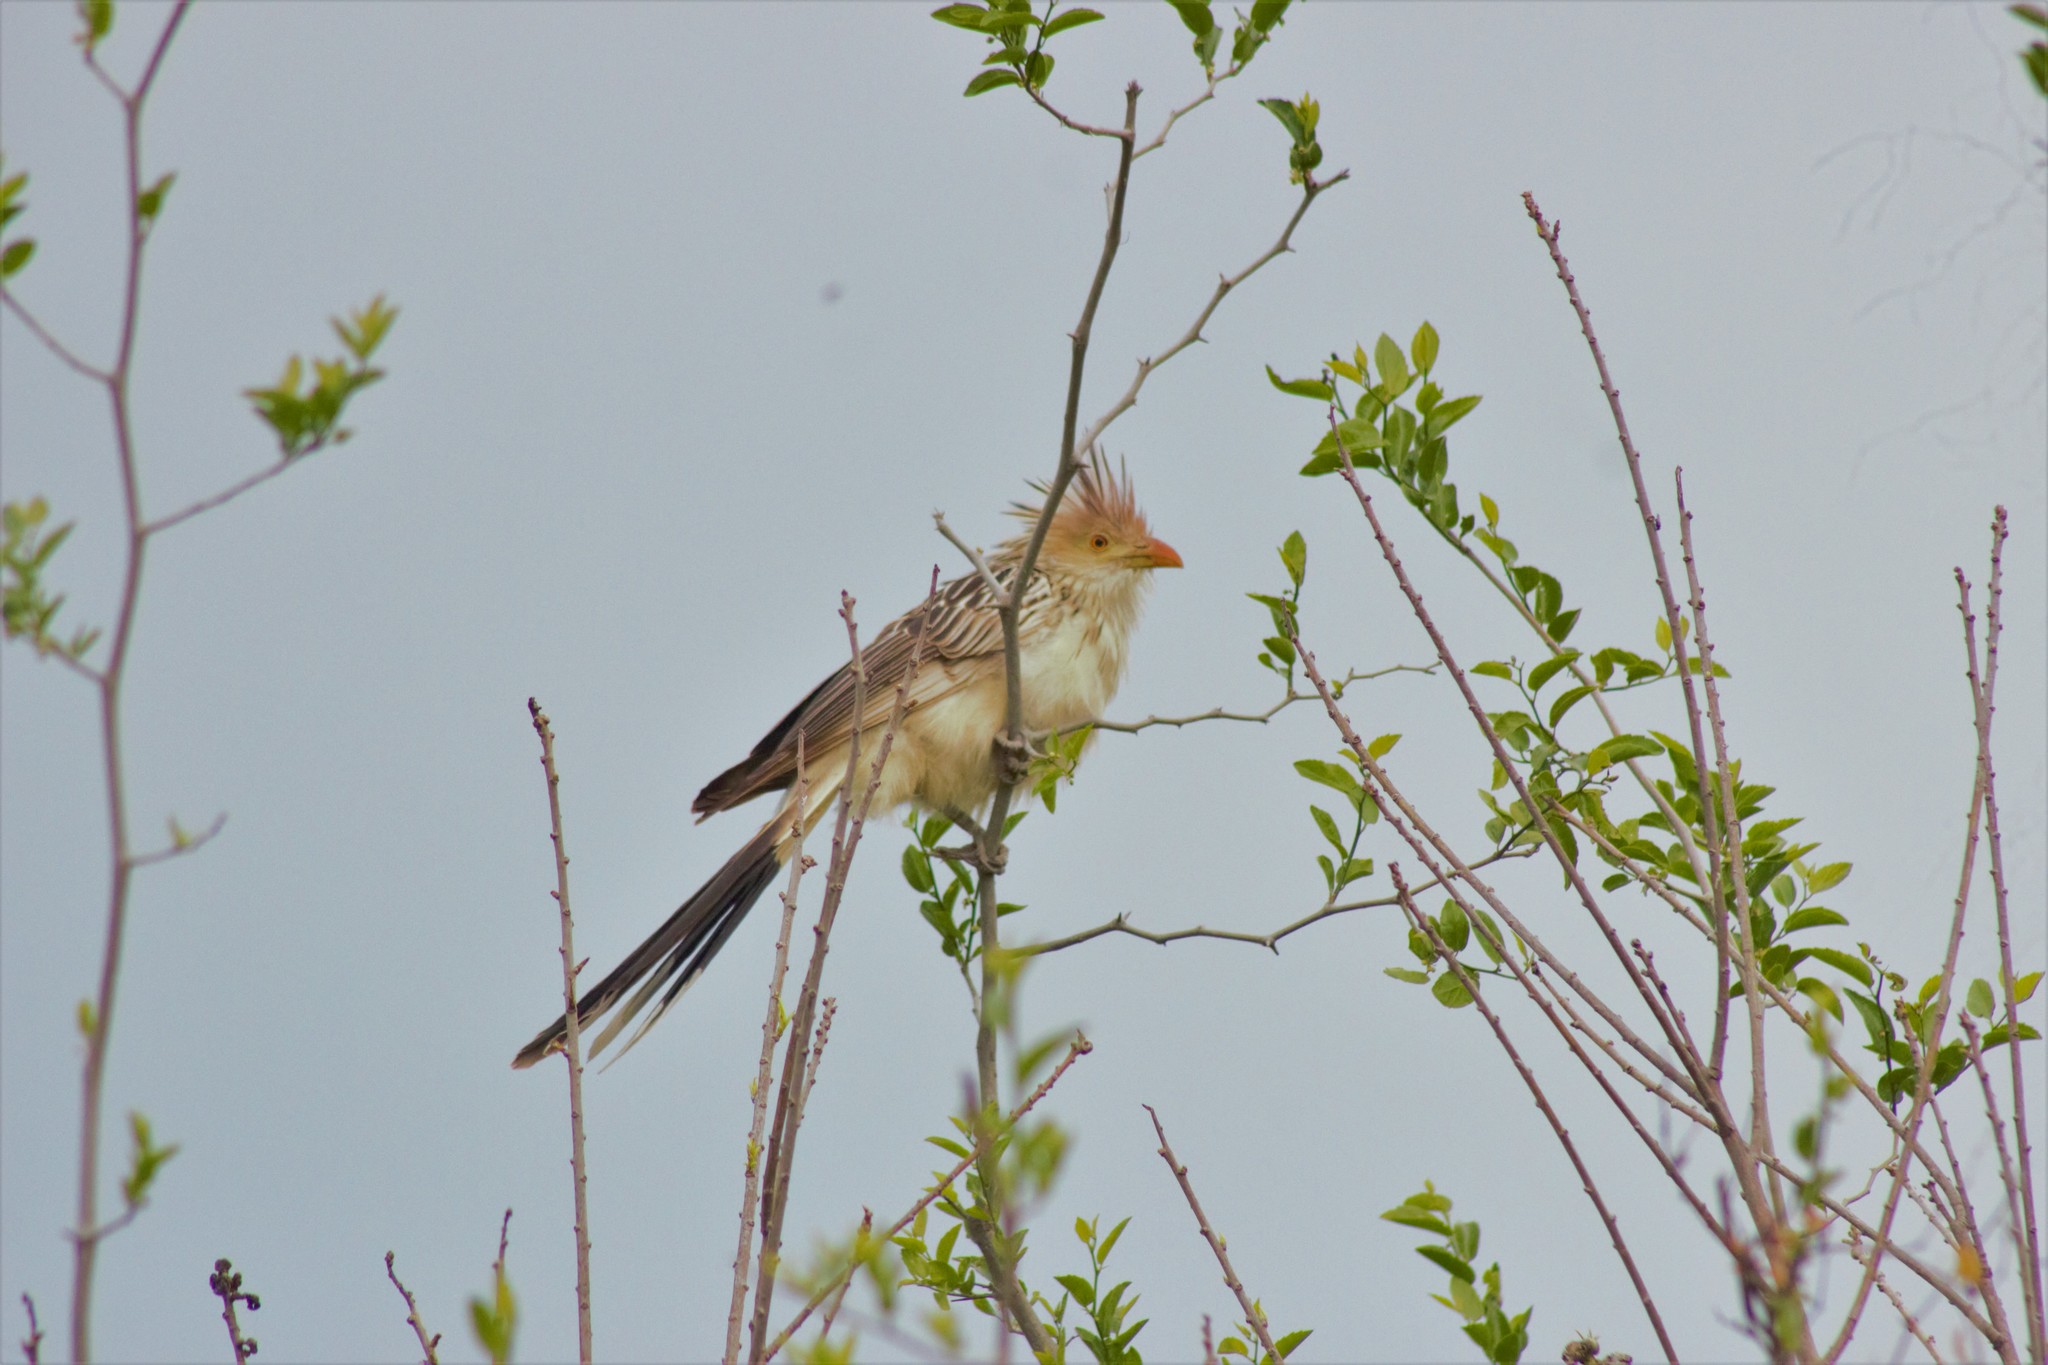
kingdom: Animalia
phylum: Chordata
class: Aves
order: Cuculiformes
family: Cuculidae
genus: Guira
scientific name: Guira guira
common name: Guira cuckoo
